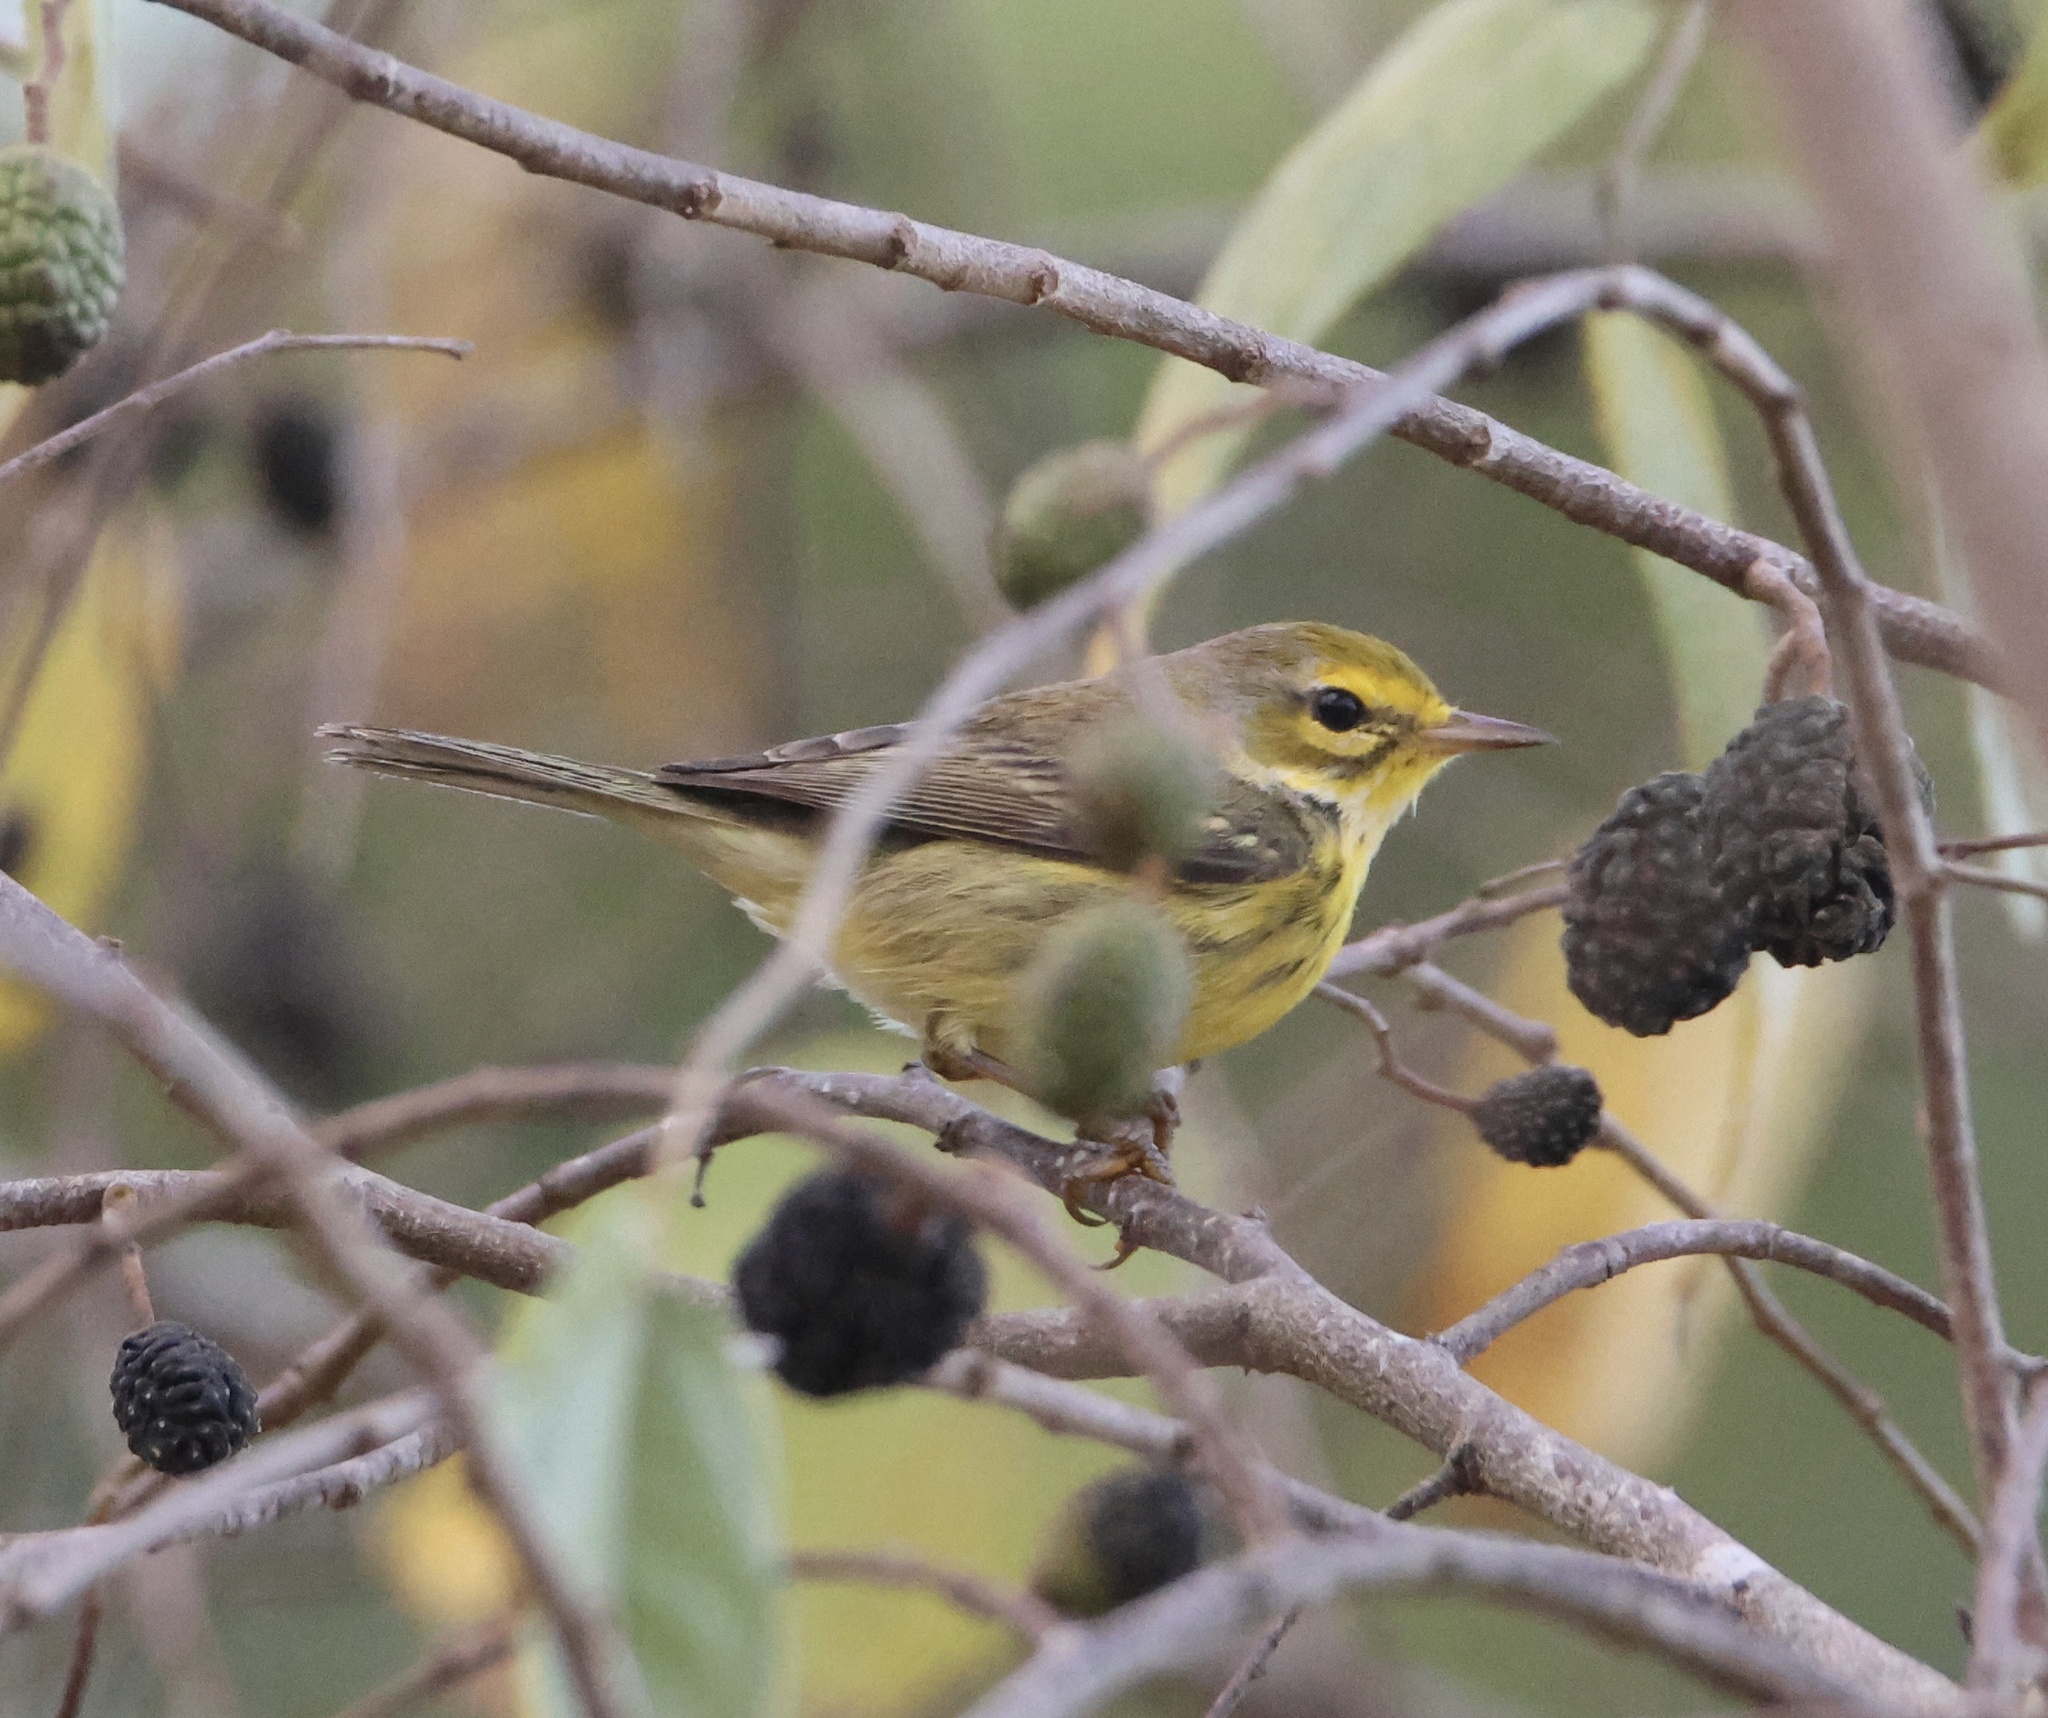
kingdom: Animalia
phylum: Chordata
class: Aves
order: Passeriformes
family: Parulidae
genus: Setophaga
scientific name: Setophaga discolor
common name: Prairie warbler
